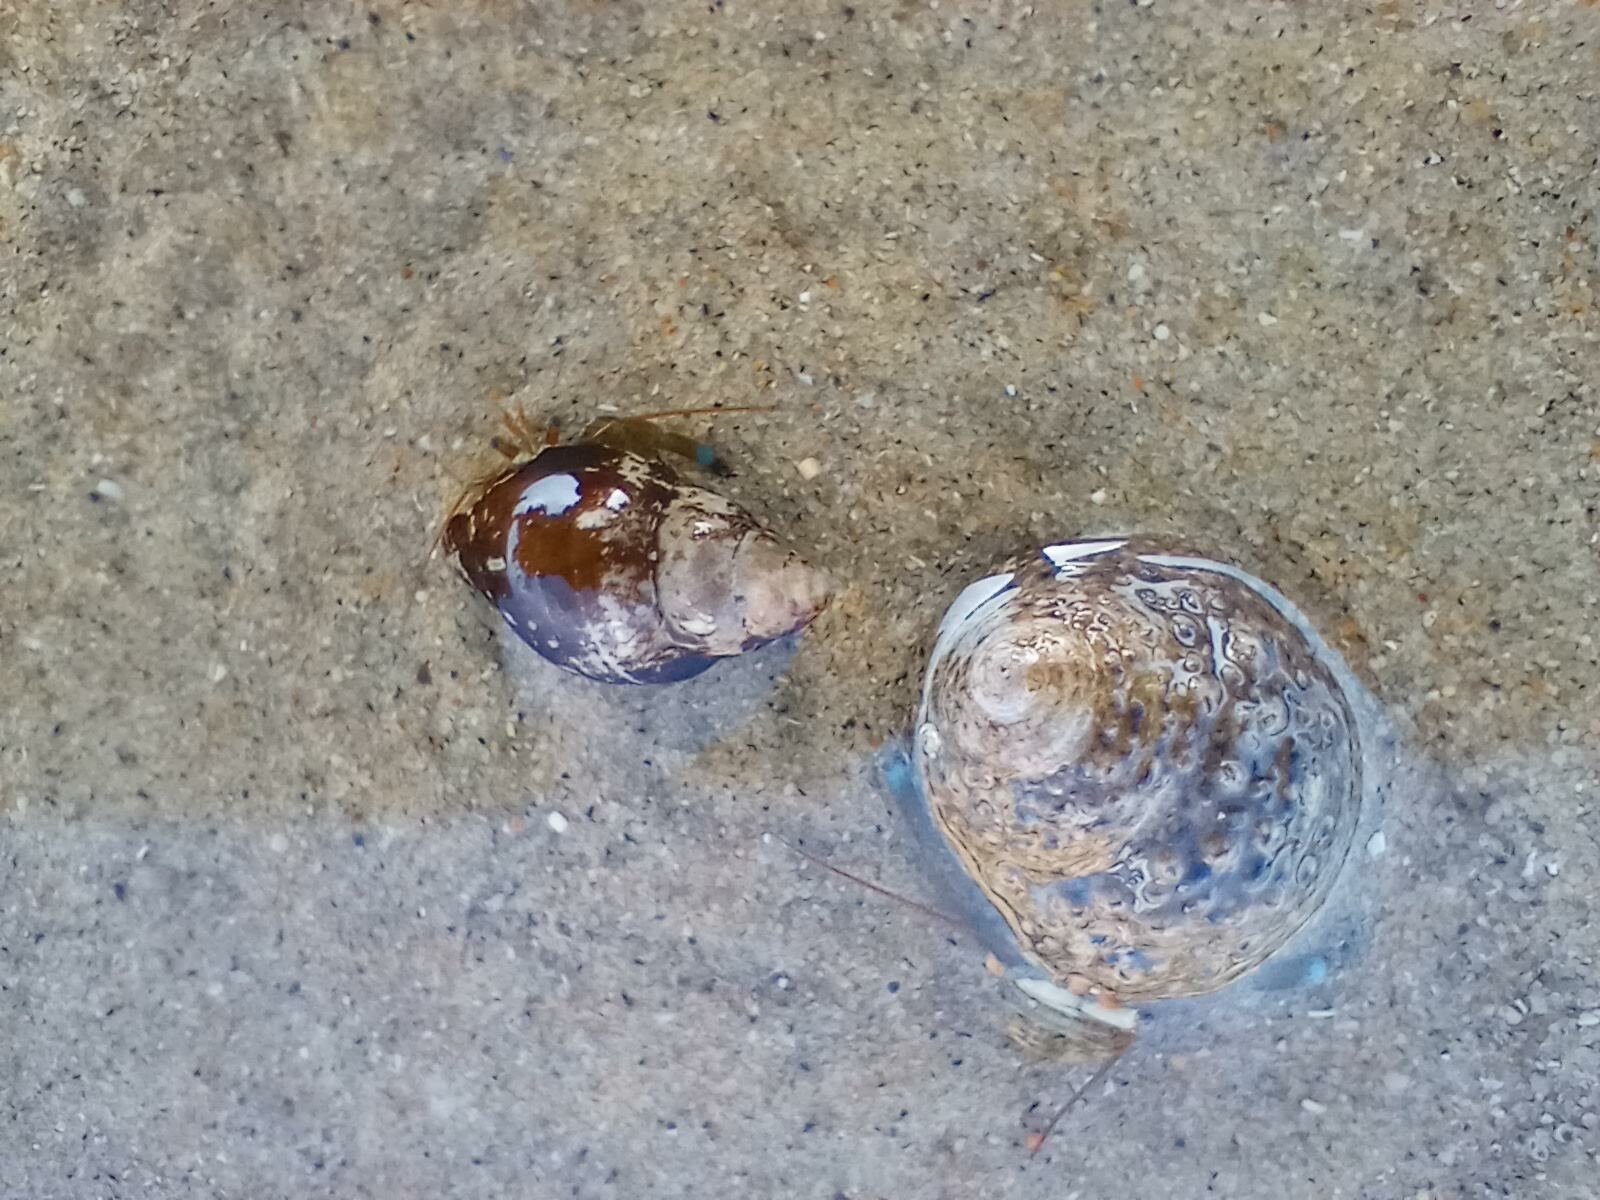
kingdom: Animalia
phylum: Arthropoda
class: Malacostraca
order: Decapoda
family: Paguridae
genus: Pagurus
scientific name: Pagurus samuelis
